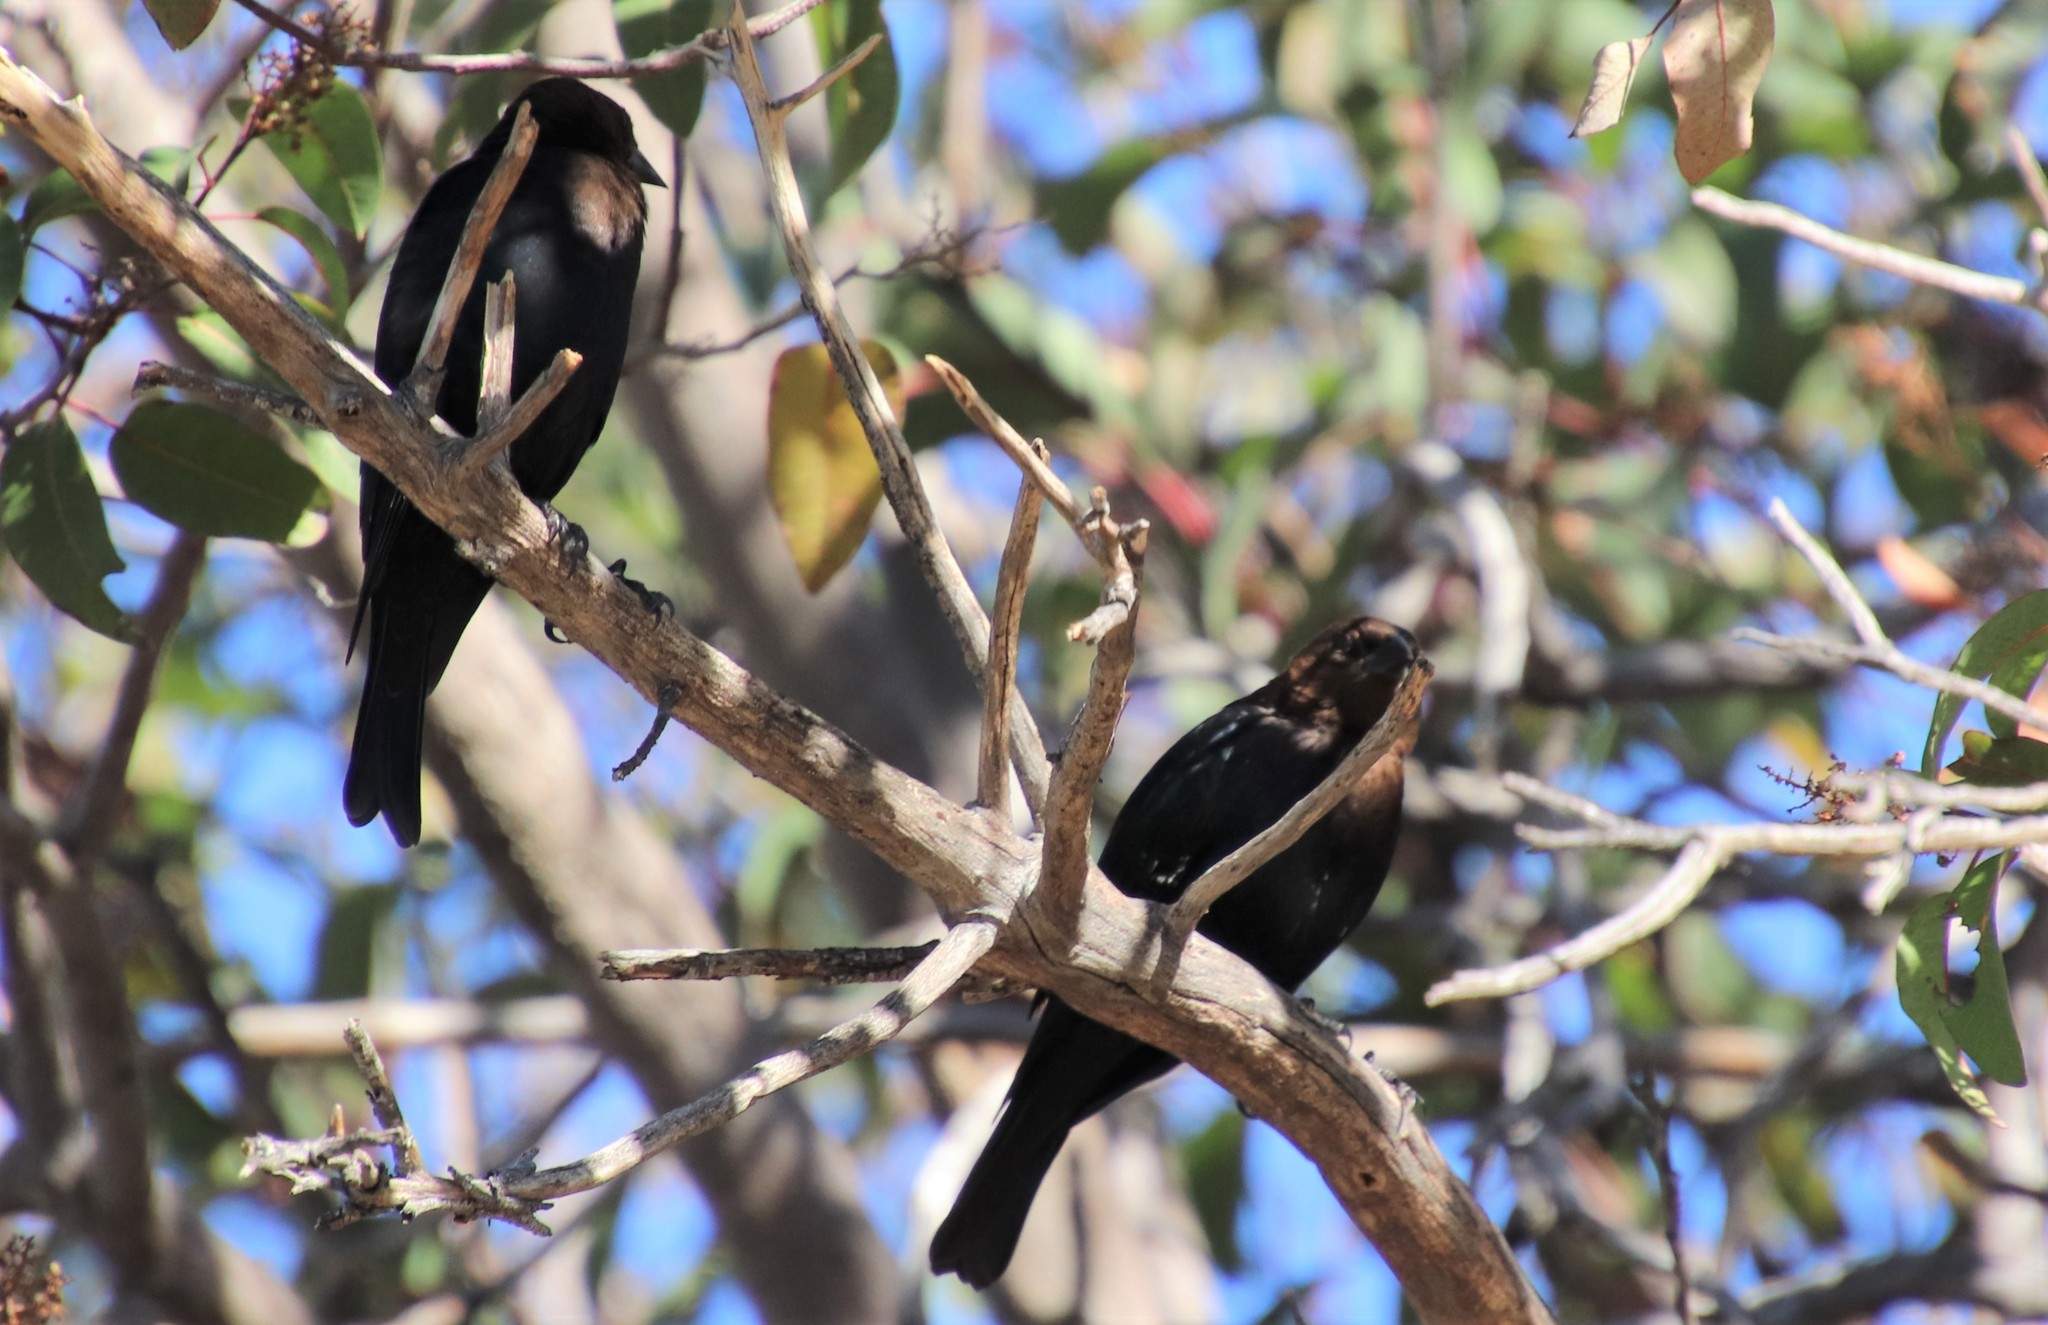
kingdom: Animalia
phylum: Chordata
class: Aves
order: Passeriformes
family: Icteridae
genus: Molothrus
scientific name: Molothrus ater
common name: Brown-headed cowbird
